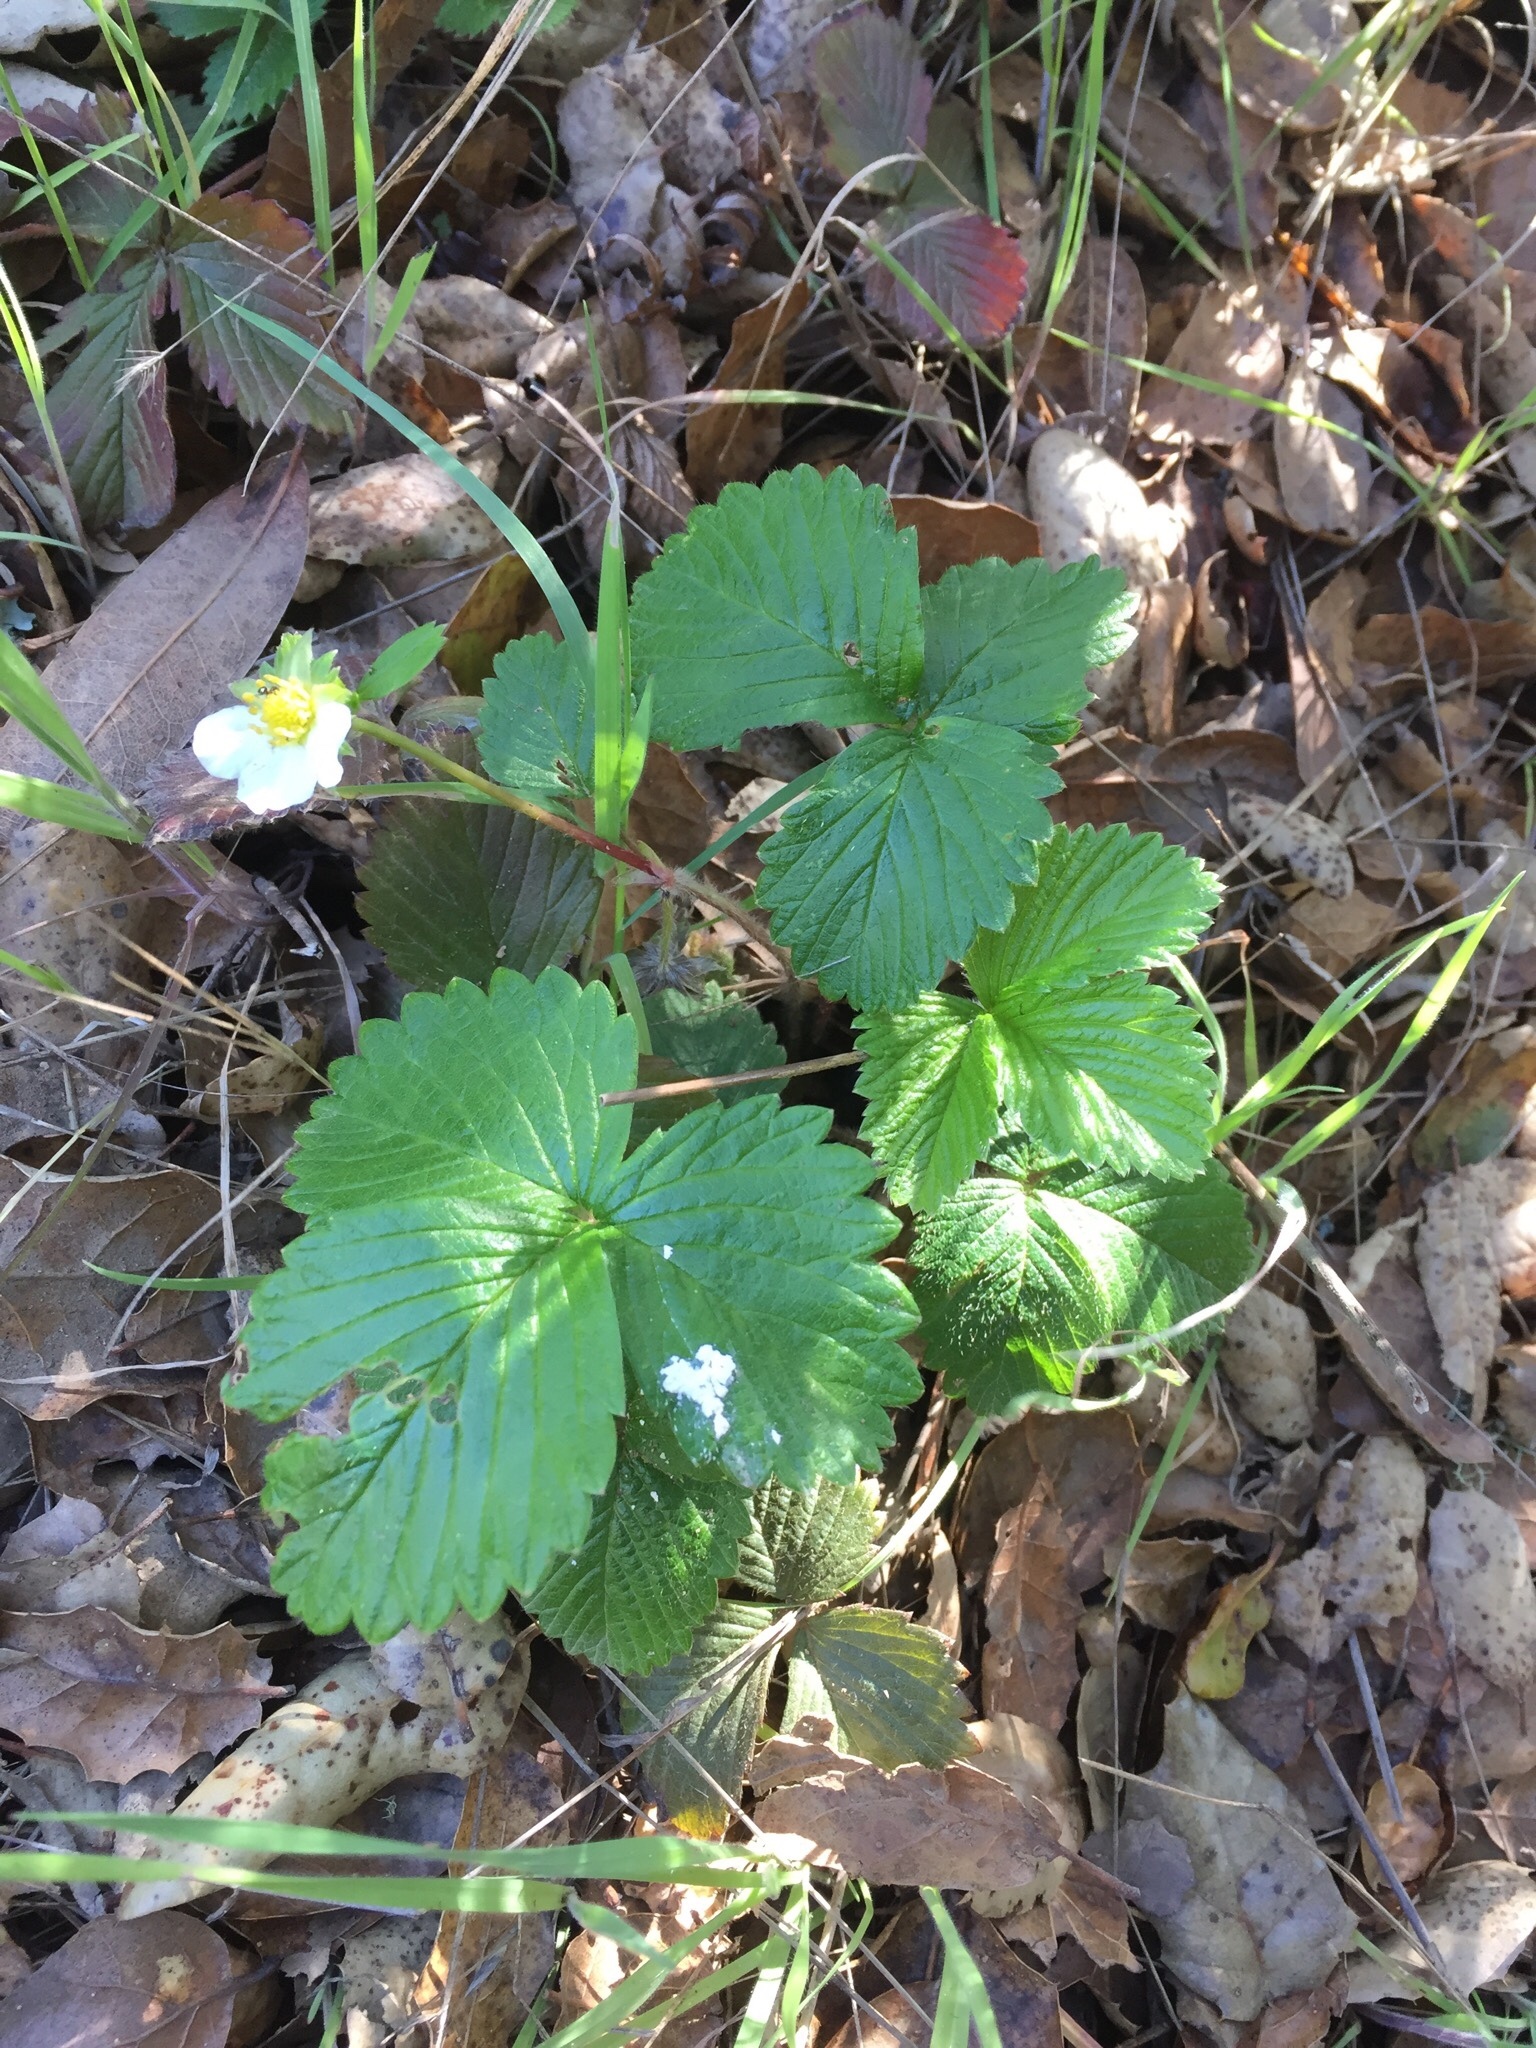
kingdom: Plantae
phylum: Tracheophyta
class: Magnoliopsida
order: Rosales
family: Rosaceae
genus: Fragaria
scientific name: Fragaria vesca
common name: Wild strawberry
